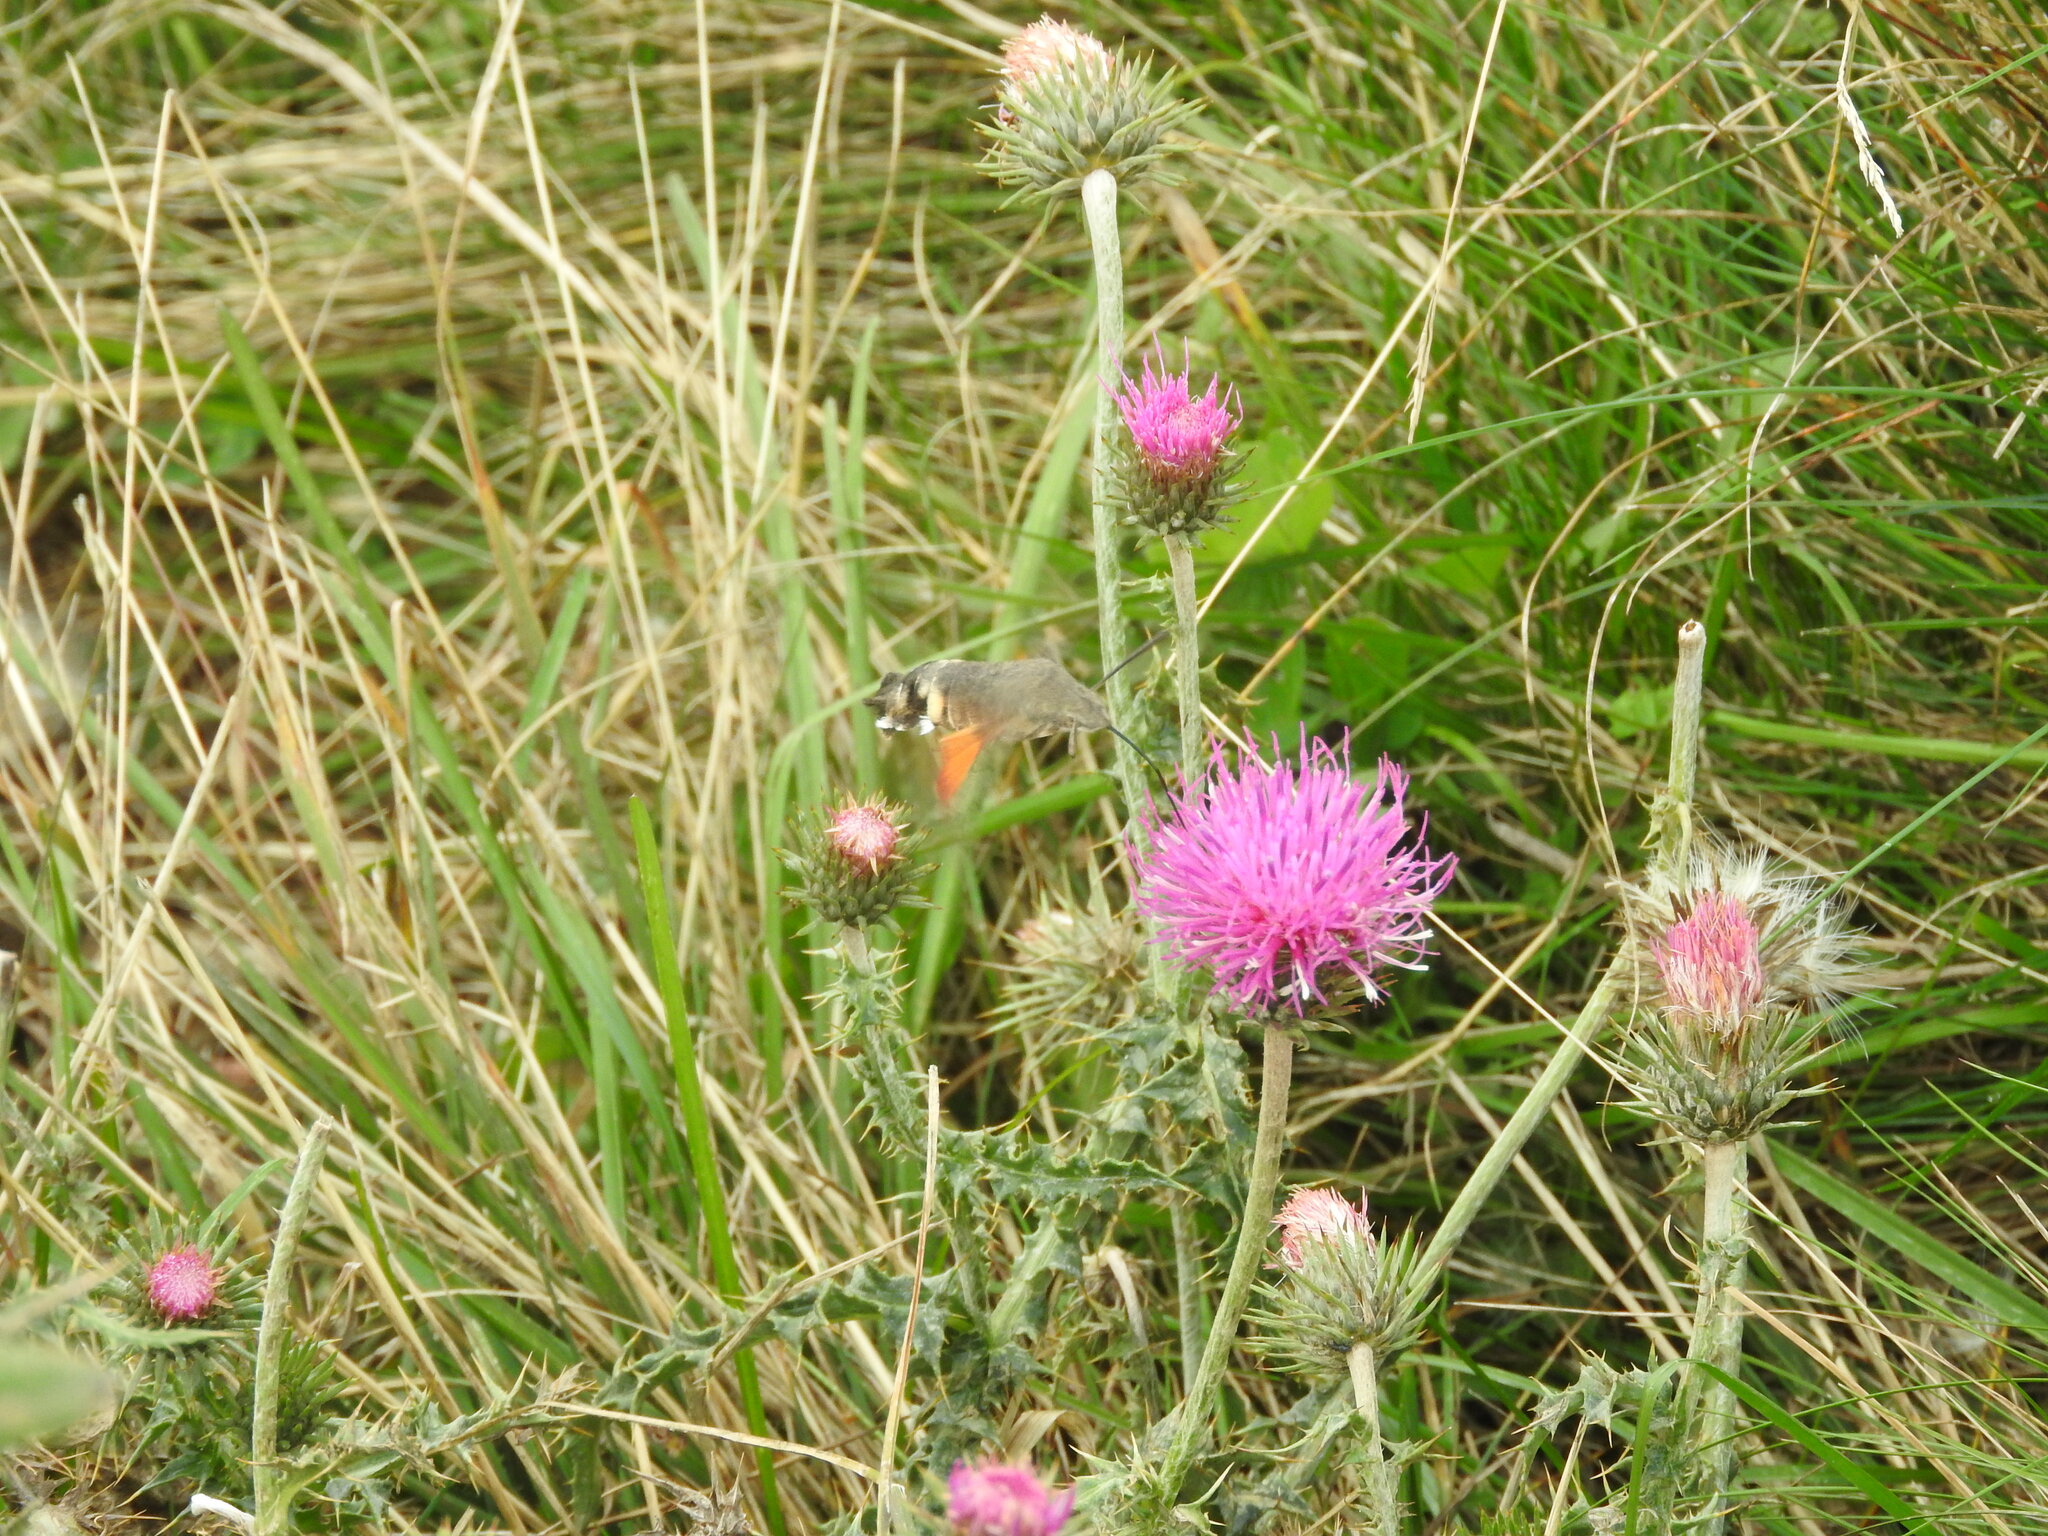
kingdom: Animalia
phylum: Arthropoda
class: Insecta
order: Lepidoptera
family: Sphingidae
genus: Macroglossum
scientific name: Macroglossum stellatarum
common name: Humming-bird hawk-moth
